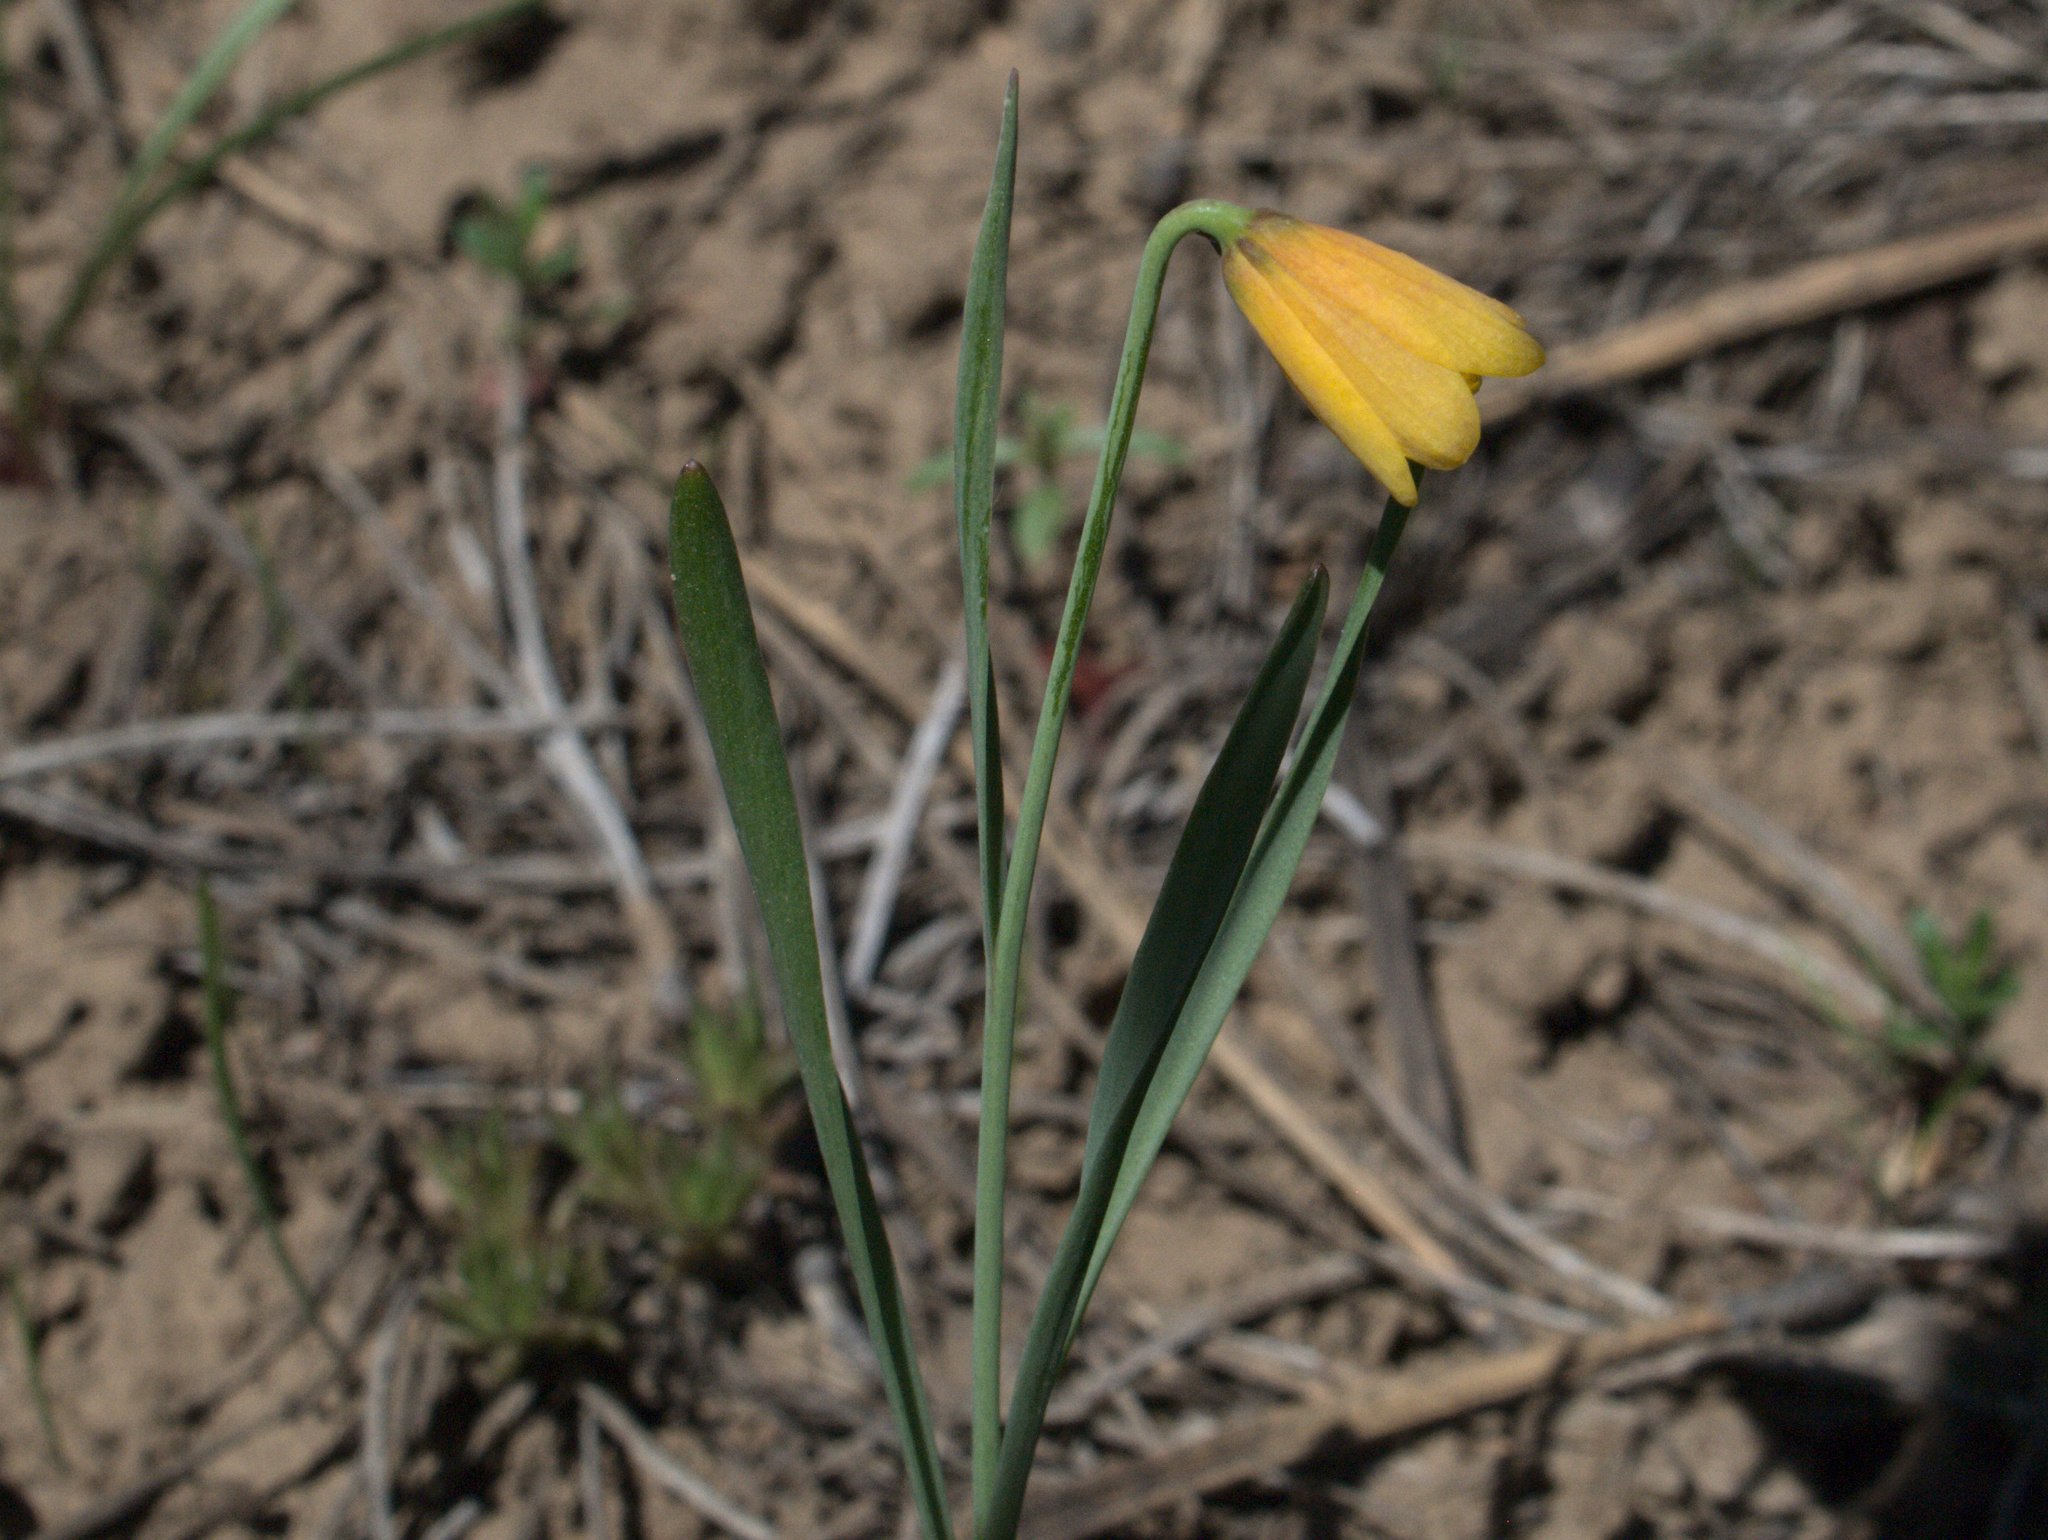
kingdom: Plantae
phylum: Tracheophyta
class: Liliopsida
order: Liliales
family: Liliaceae
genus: Fritillaria
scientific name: Fritillaria pudica
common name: Yellow fritillary
